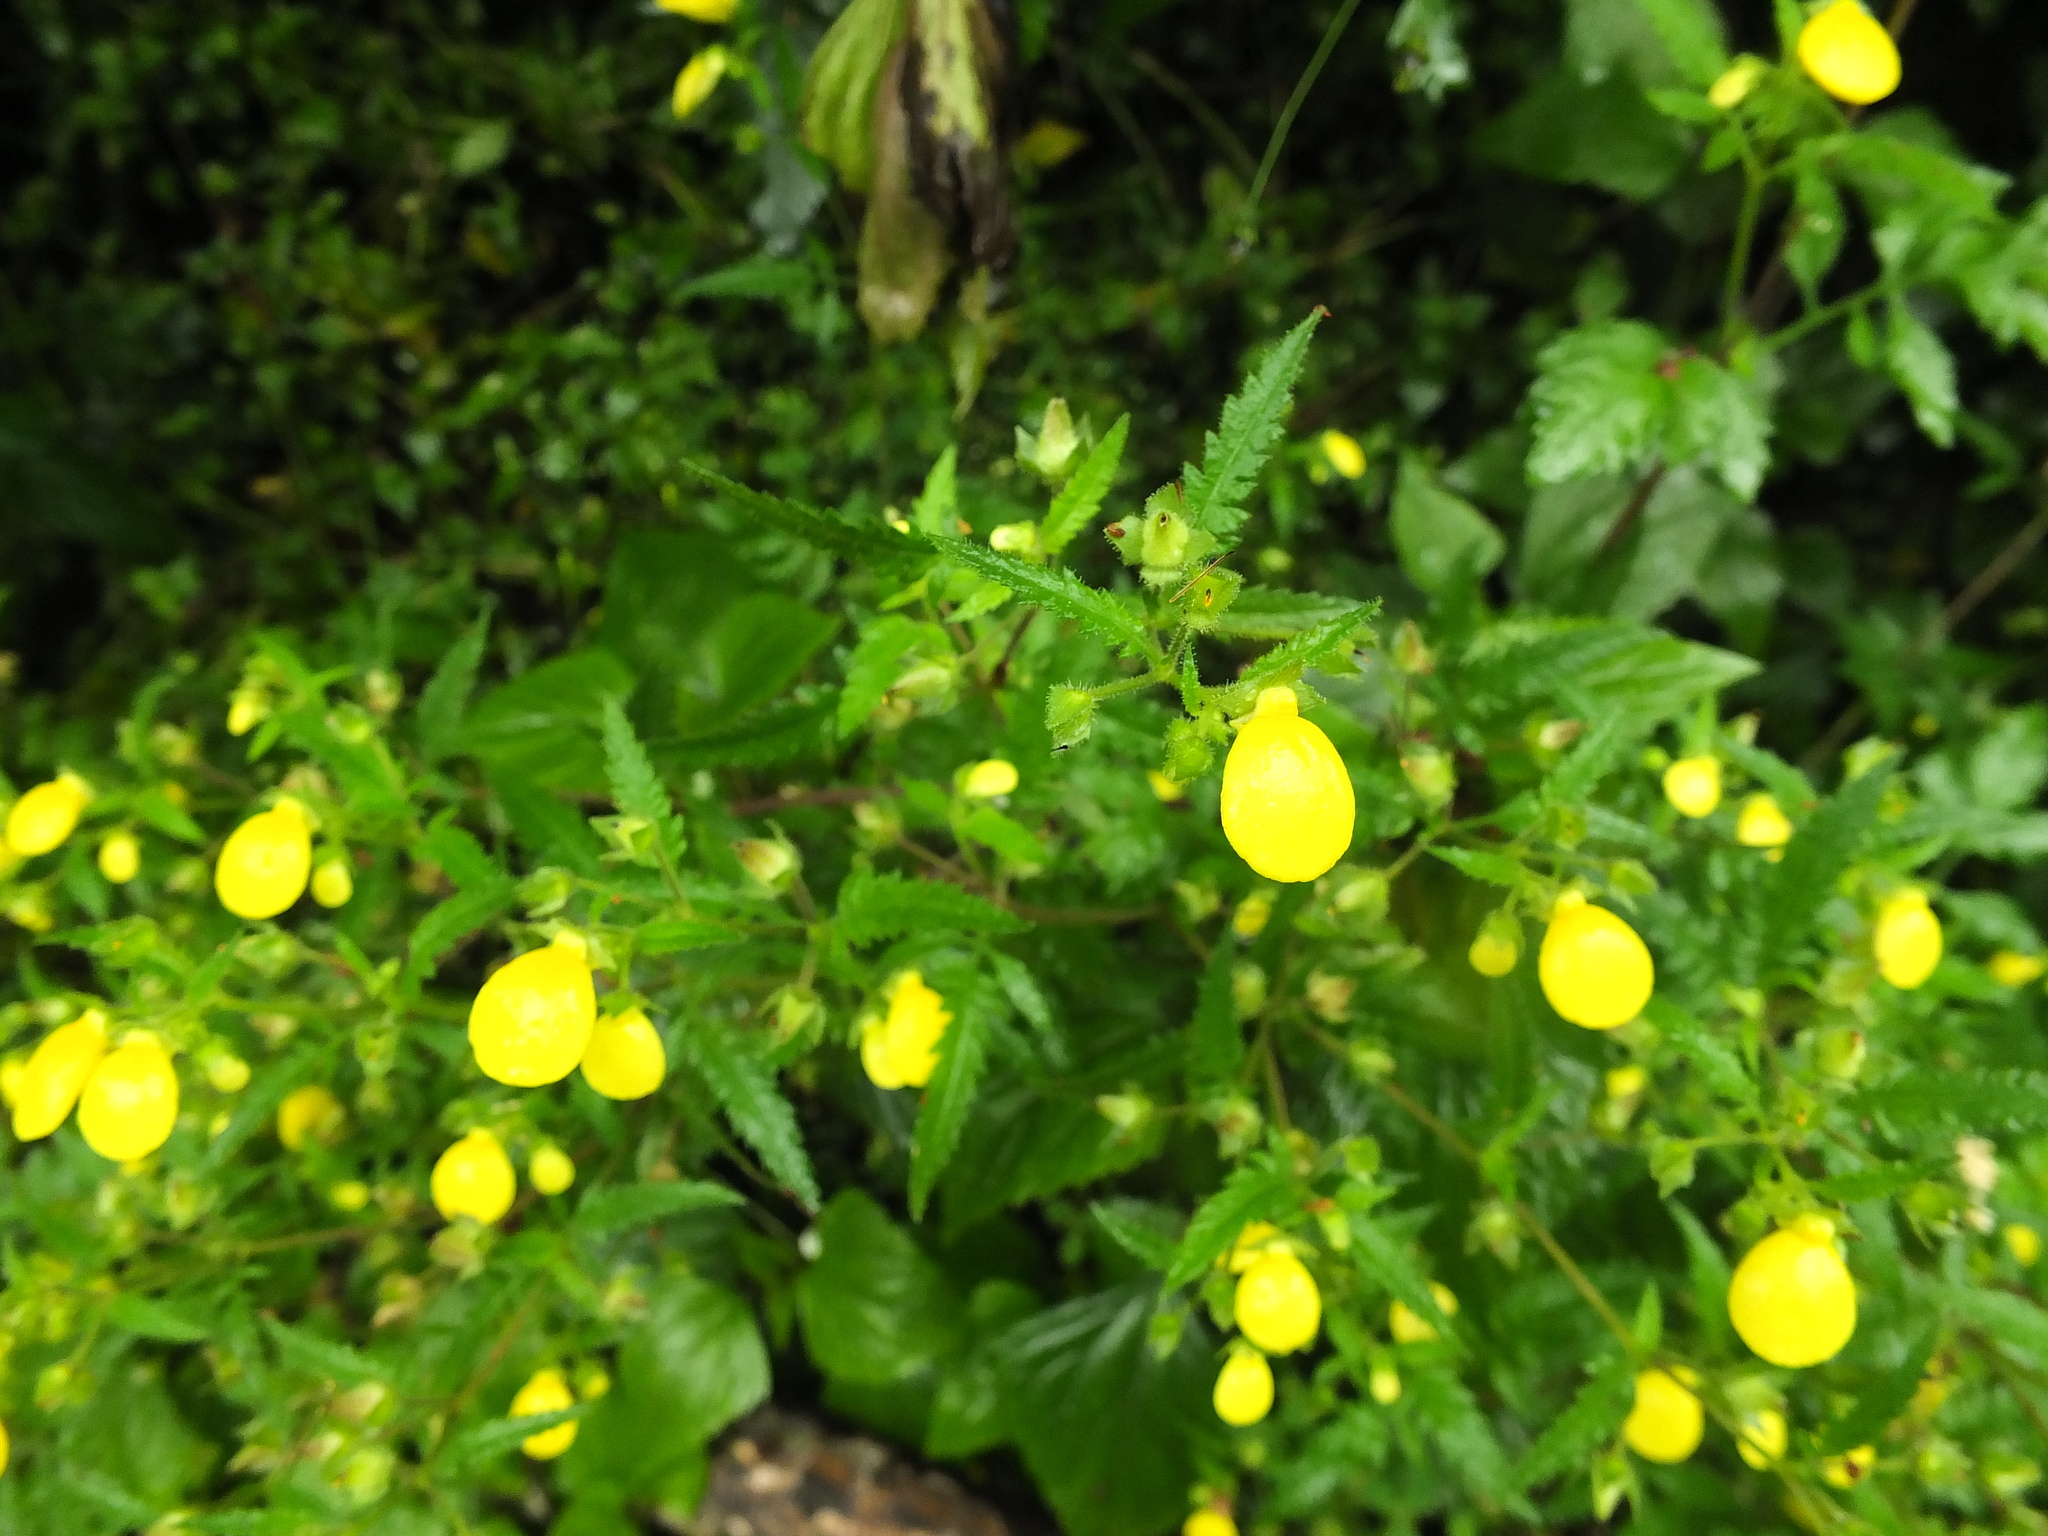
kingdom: Plantae
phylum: Tracheophyta
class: Magnoliopsida
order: Lamiales
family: Calceolariaceae
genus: Calceolaria
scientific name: Calceolaria tripartita
